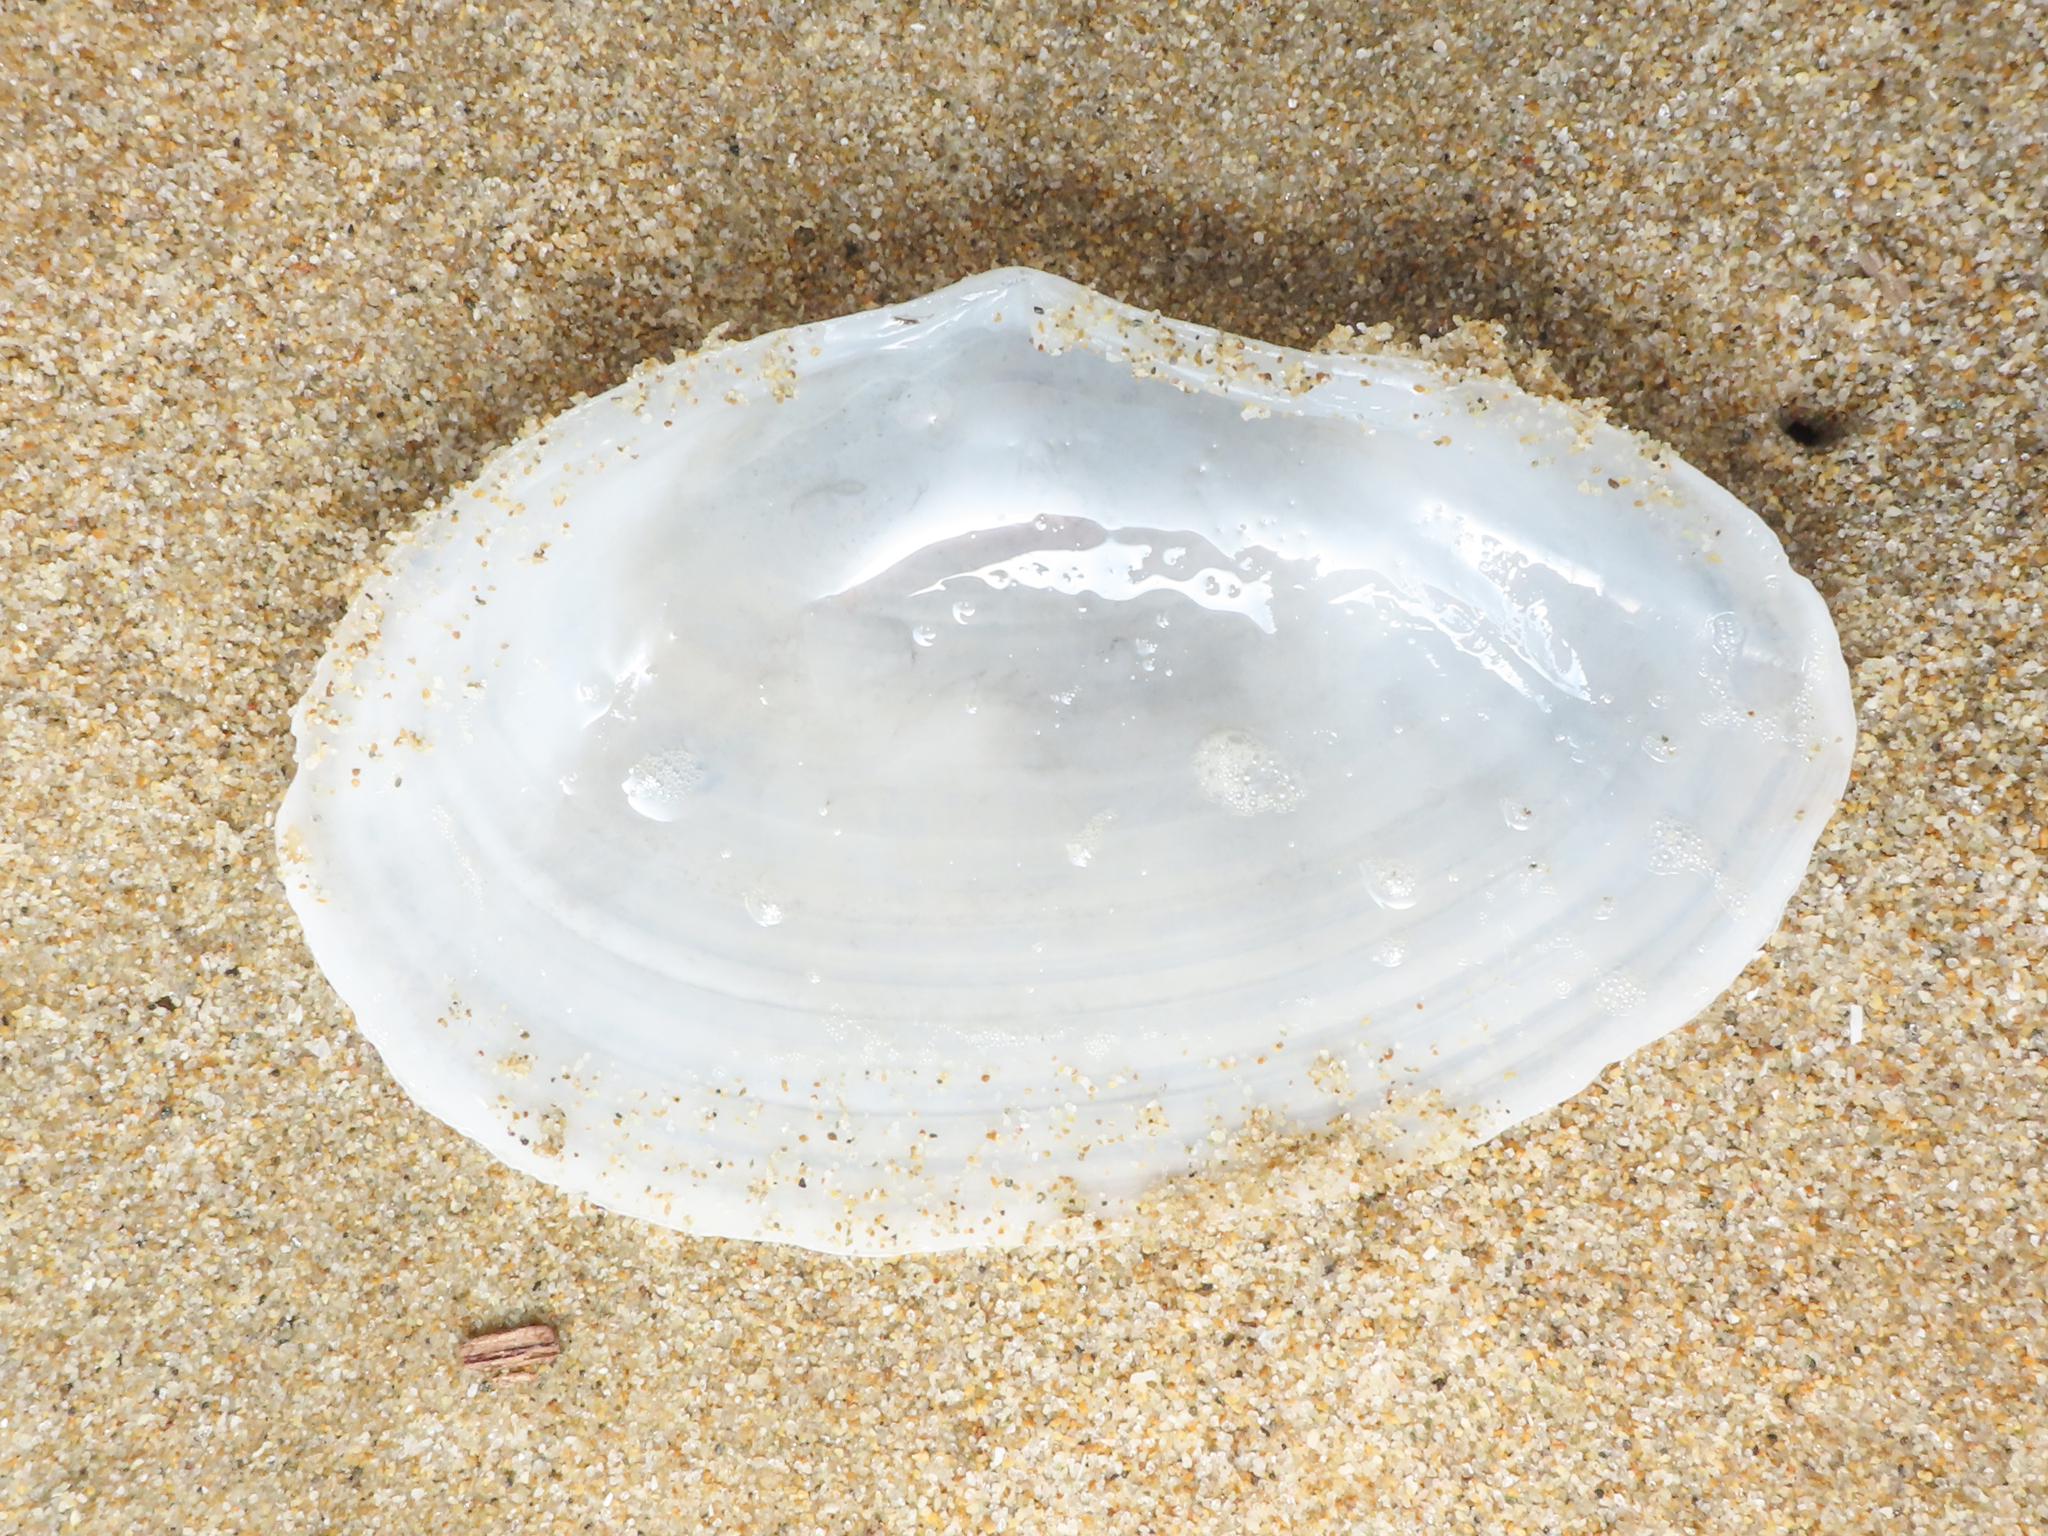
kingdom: Animalia
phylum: Mollusca
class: Bivalvia
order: Cardiida
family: Tellinidae
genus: Peronaea
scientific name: Peronaea planata
